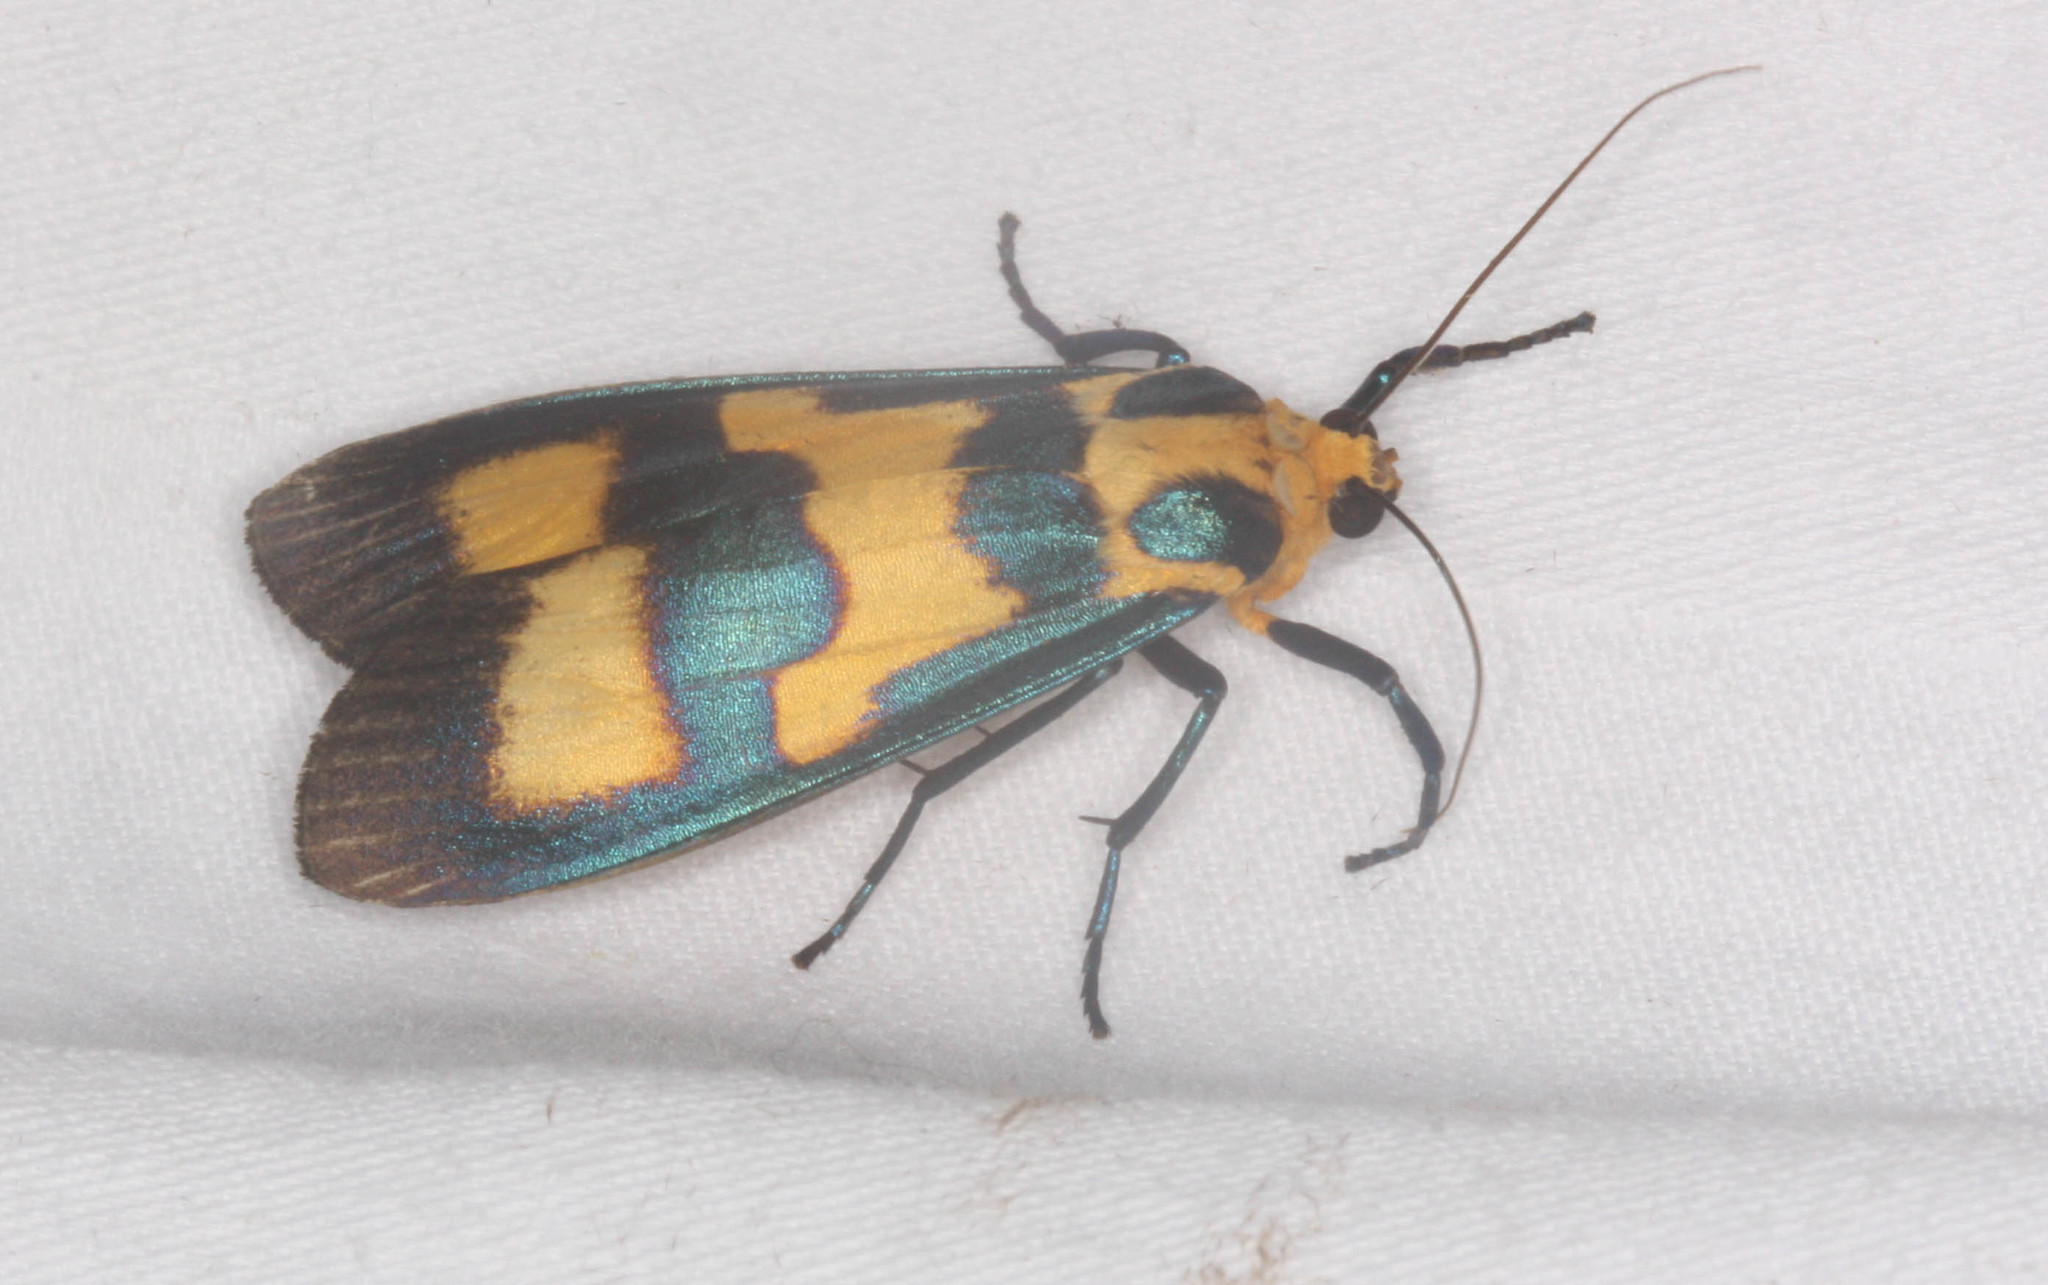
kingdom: Animalia
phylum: Arthropoda
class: Insecta
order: Lepidoptera
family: Erebidae
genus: Chrysaeglia
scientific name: Chrysaeglia magnifica
